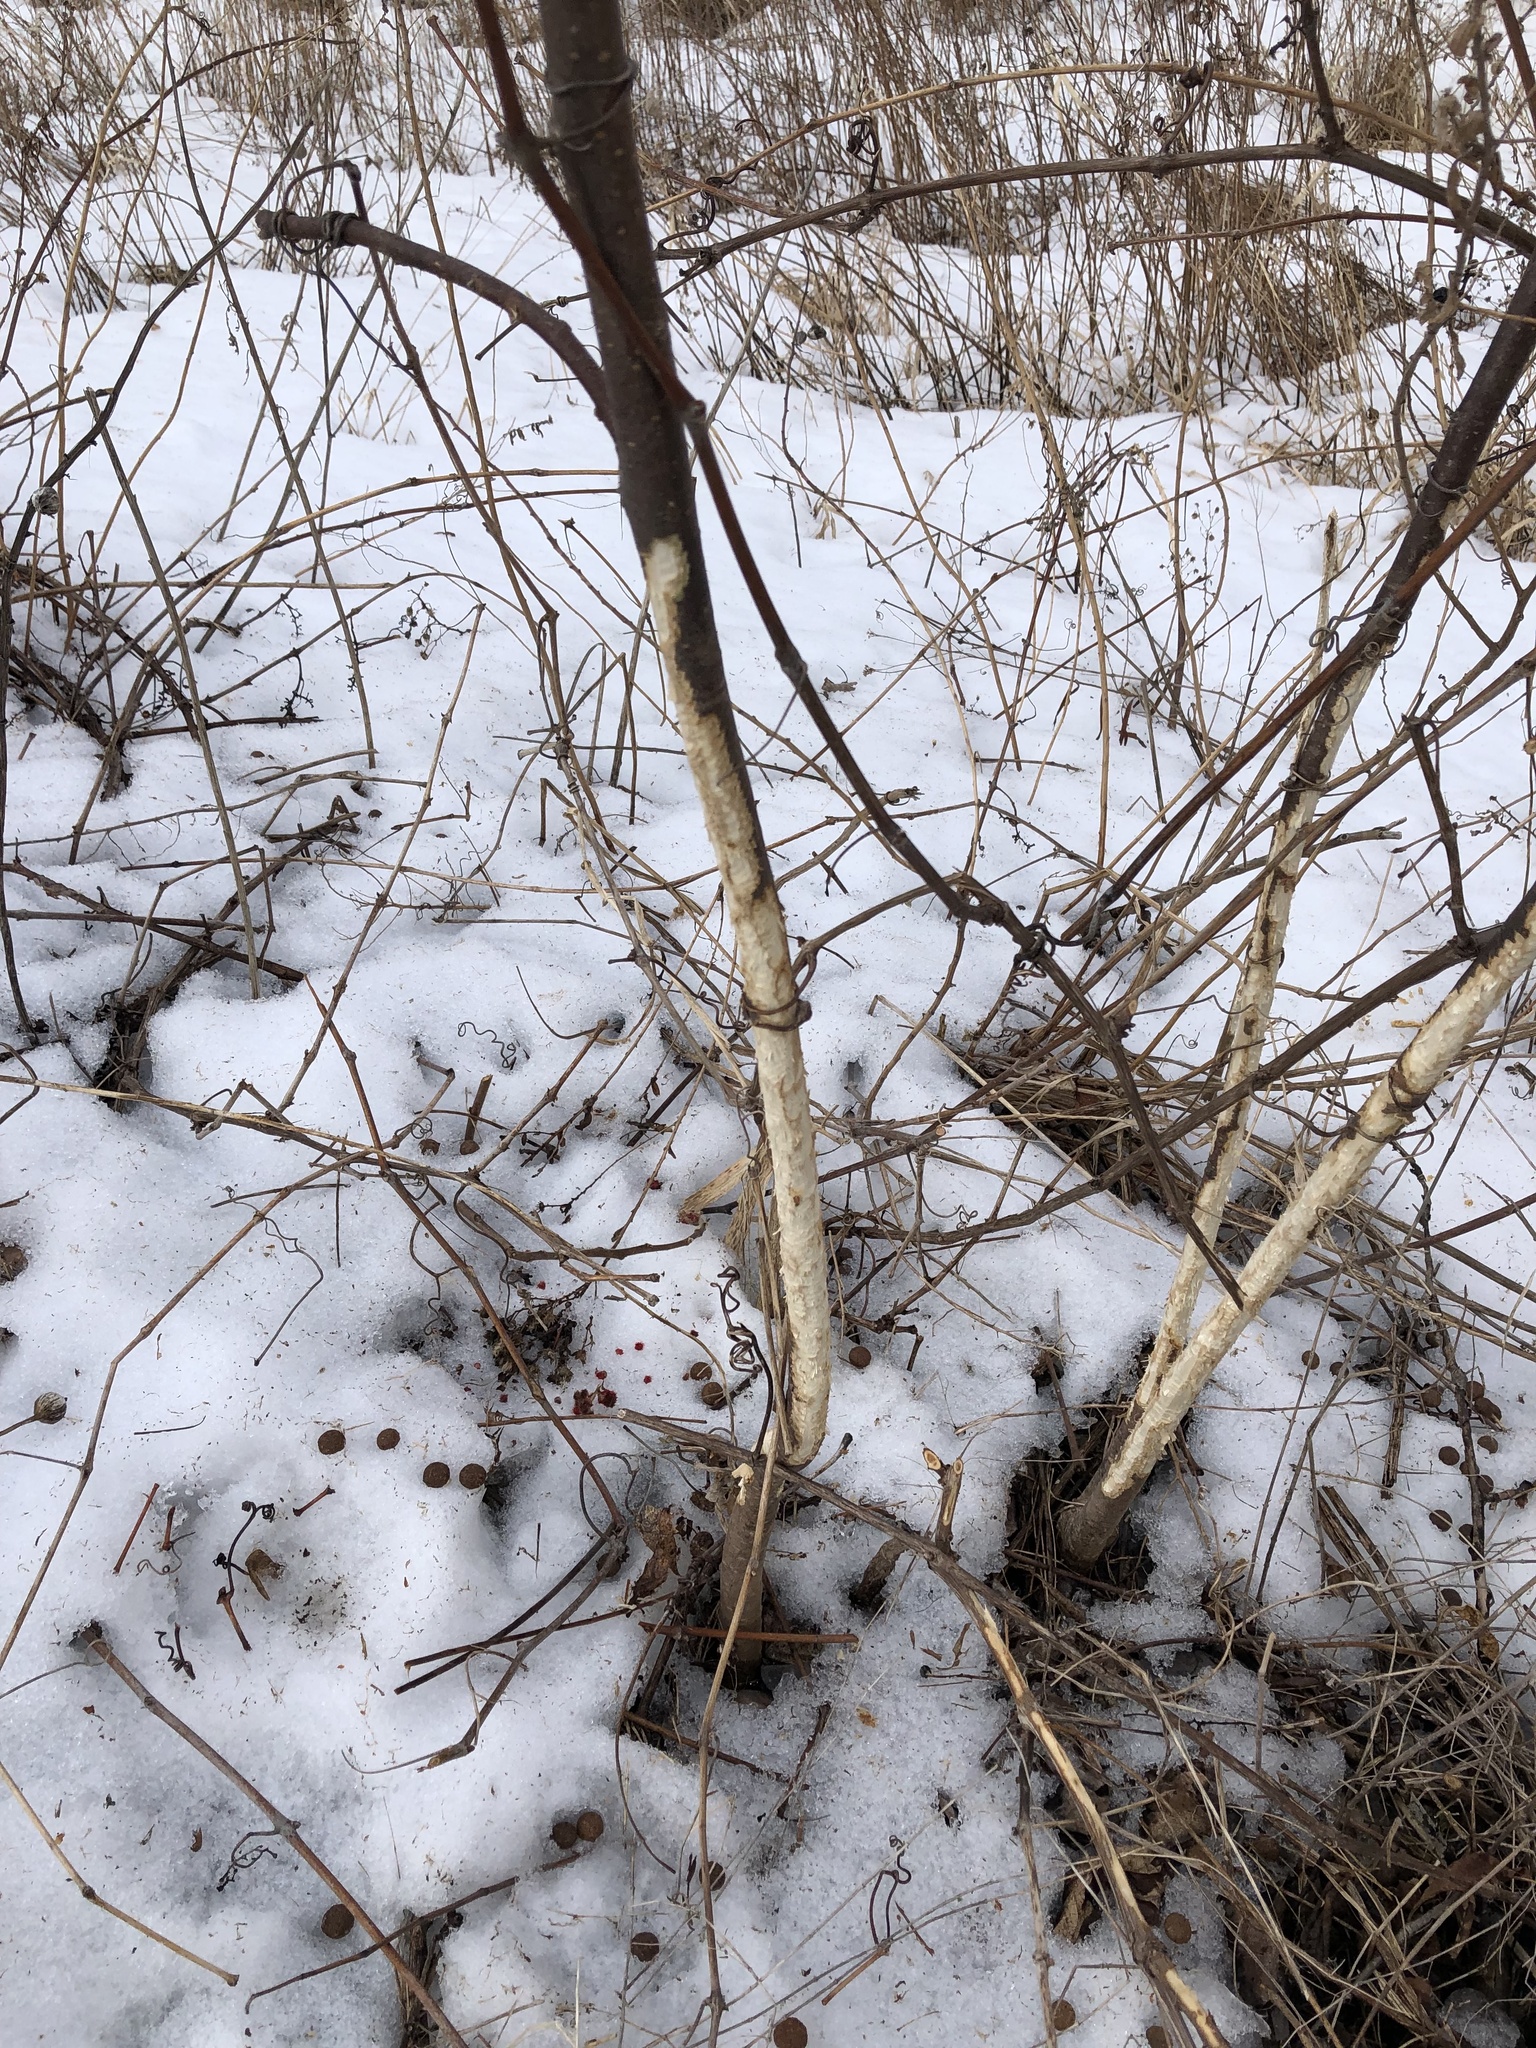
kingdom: Animalia
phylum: Chordata
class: Mammalia
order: Lagomorpha
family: Leporidae
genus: Sylvilagus
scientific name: Sylvilagus floridanus
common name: Eastern cottontail
